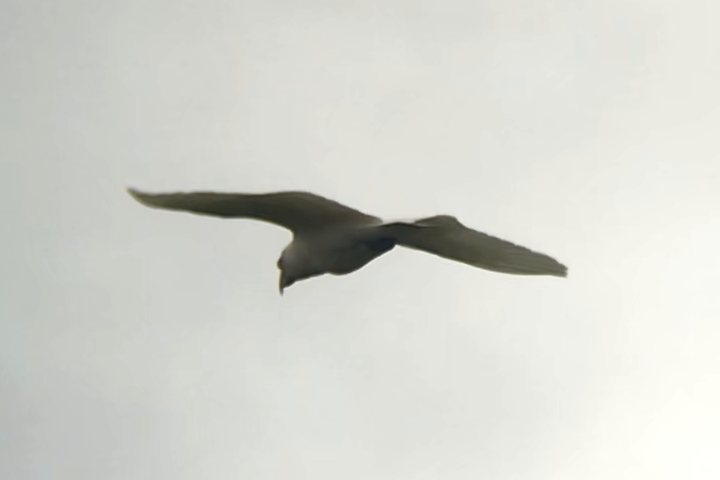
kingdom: Animalia
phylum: Chordata
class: Aves
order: Psittaciformes
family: Psittacidae
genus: Cacatua
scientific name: Cacatua tenuirostris
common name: Long-billed corella
